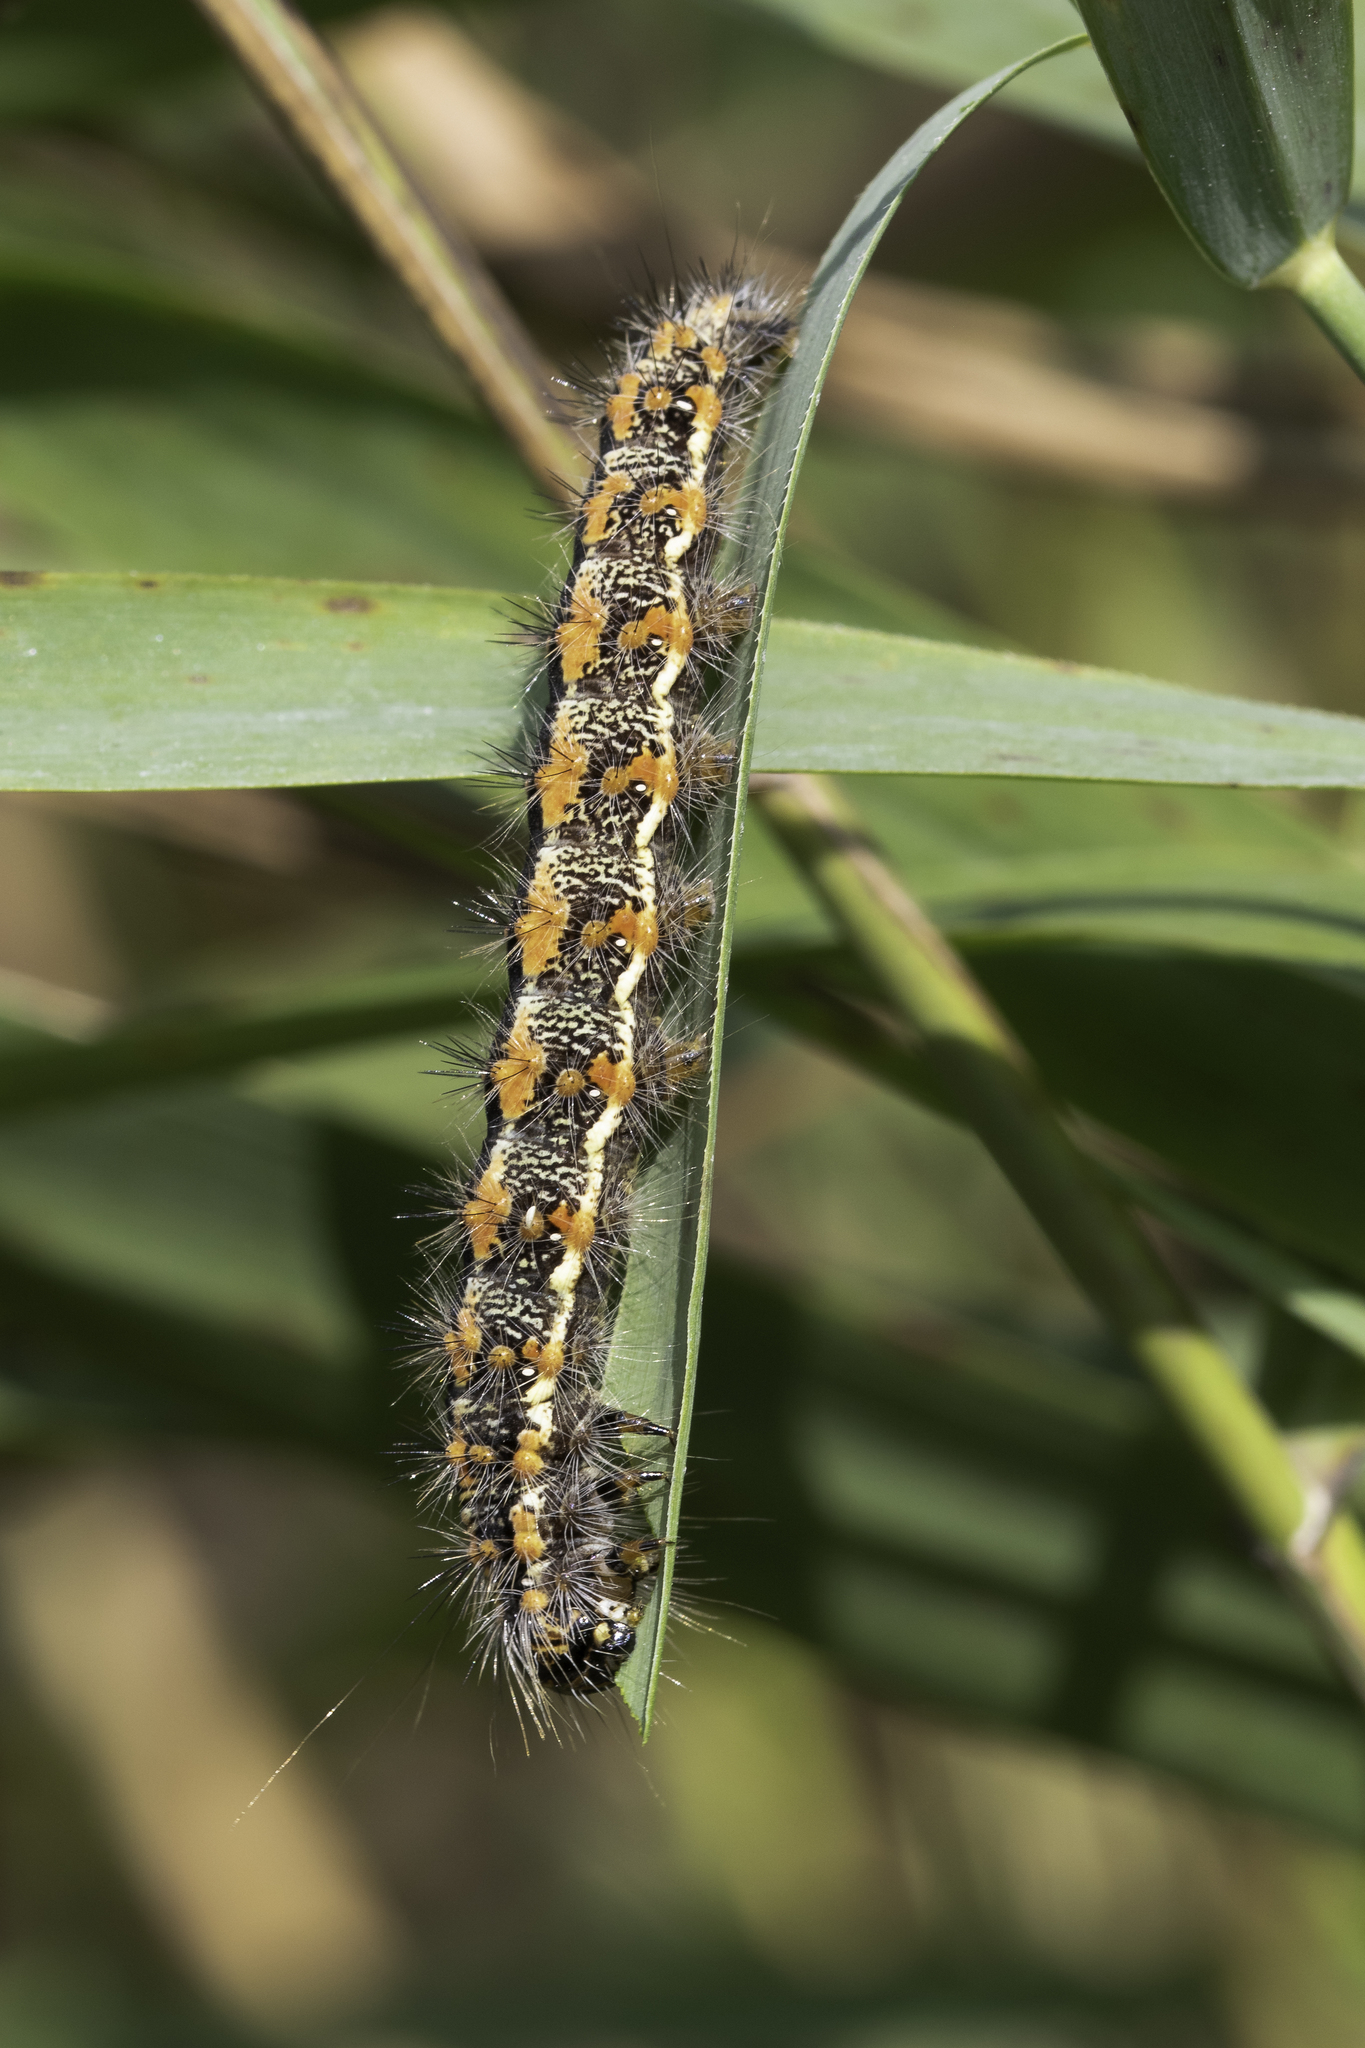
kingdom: Animalia
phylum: Arthropoda
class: Insecta
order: Lepidoptera
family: Noctuidae
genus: Simyra
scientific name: Simyra albovenosa
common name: Reed dagger
